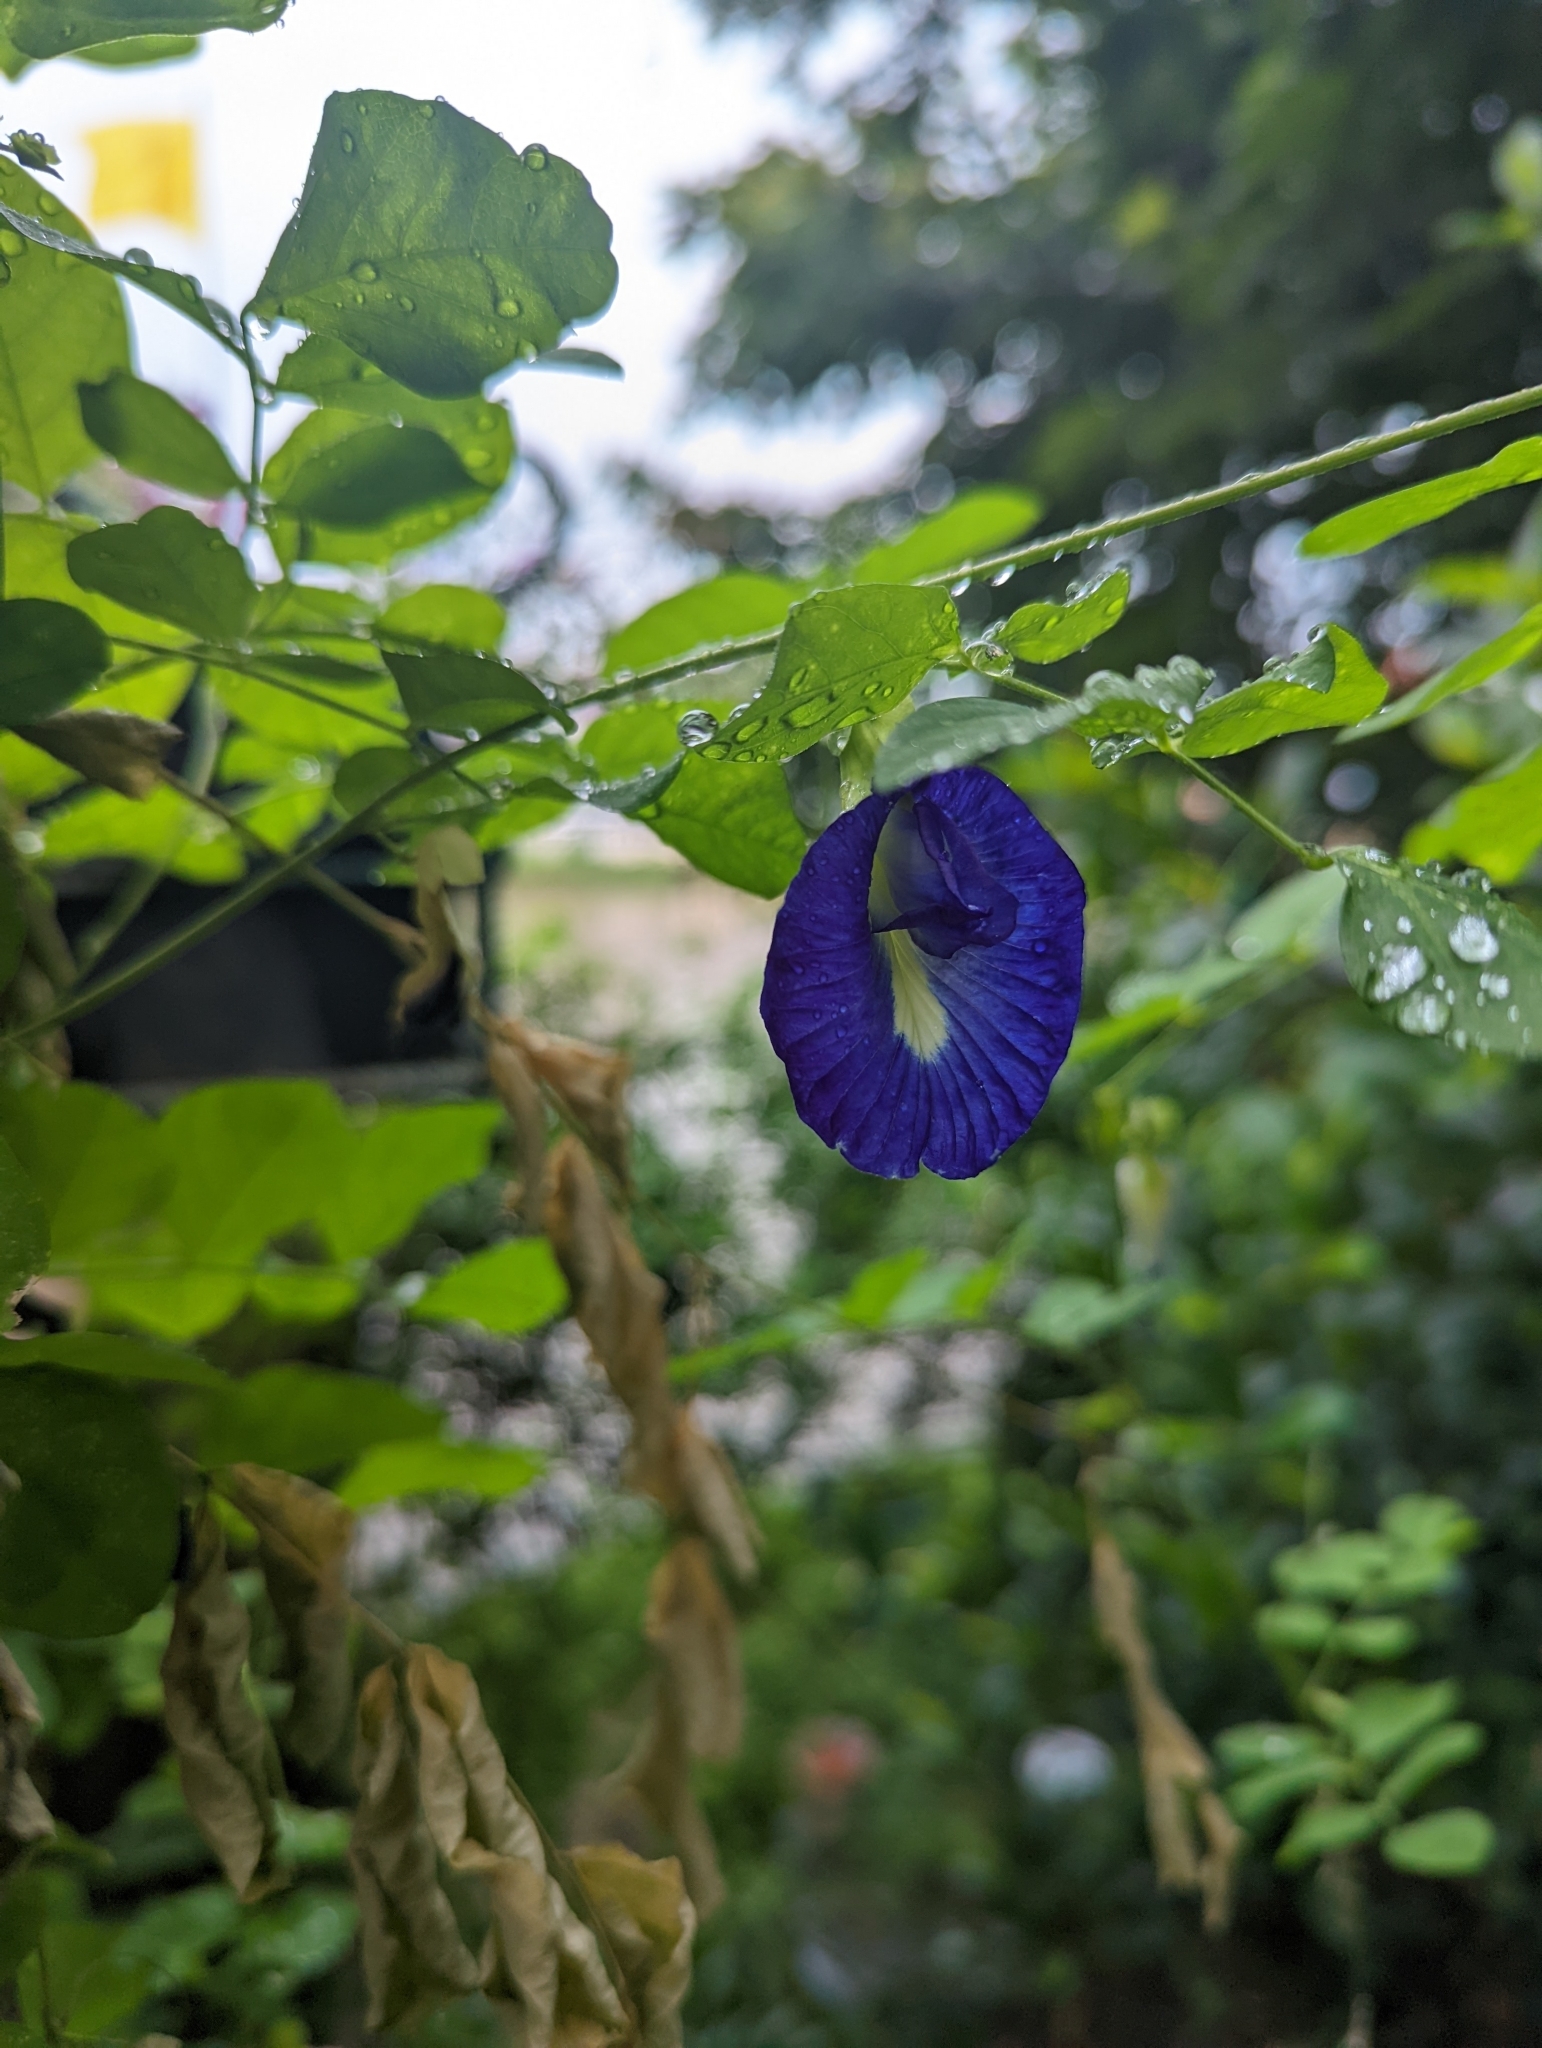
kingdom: Plantae
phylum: Tracheophyta
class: Magnoliopsida
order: Fabales
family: Fabaceae
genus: Clitoria
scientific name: Clitoria ternatea
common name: Asian pigeonwings
